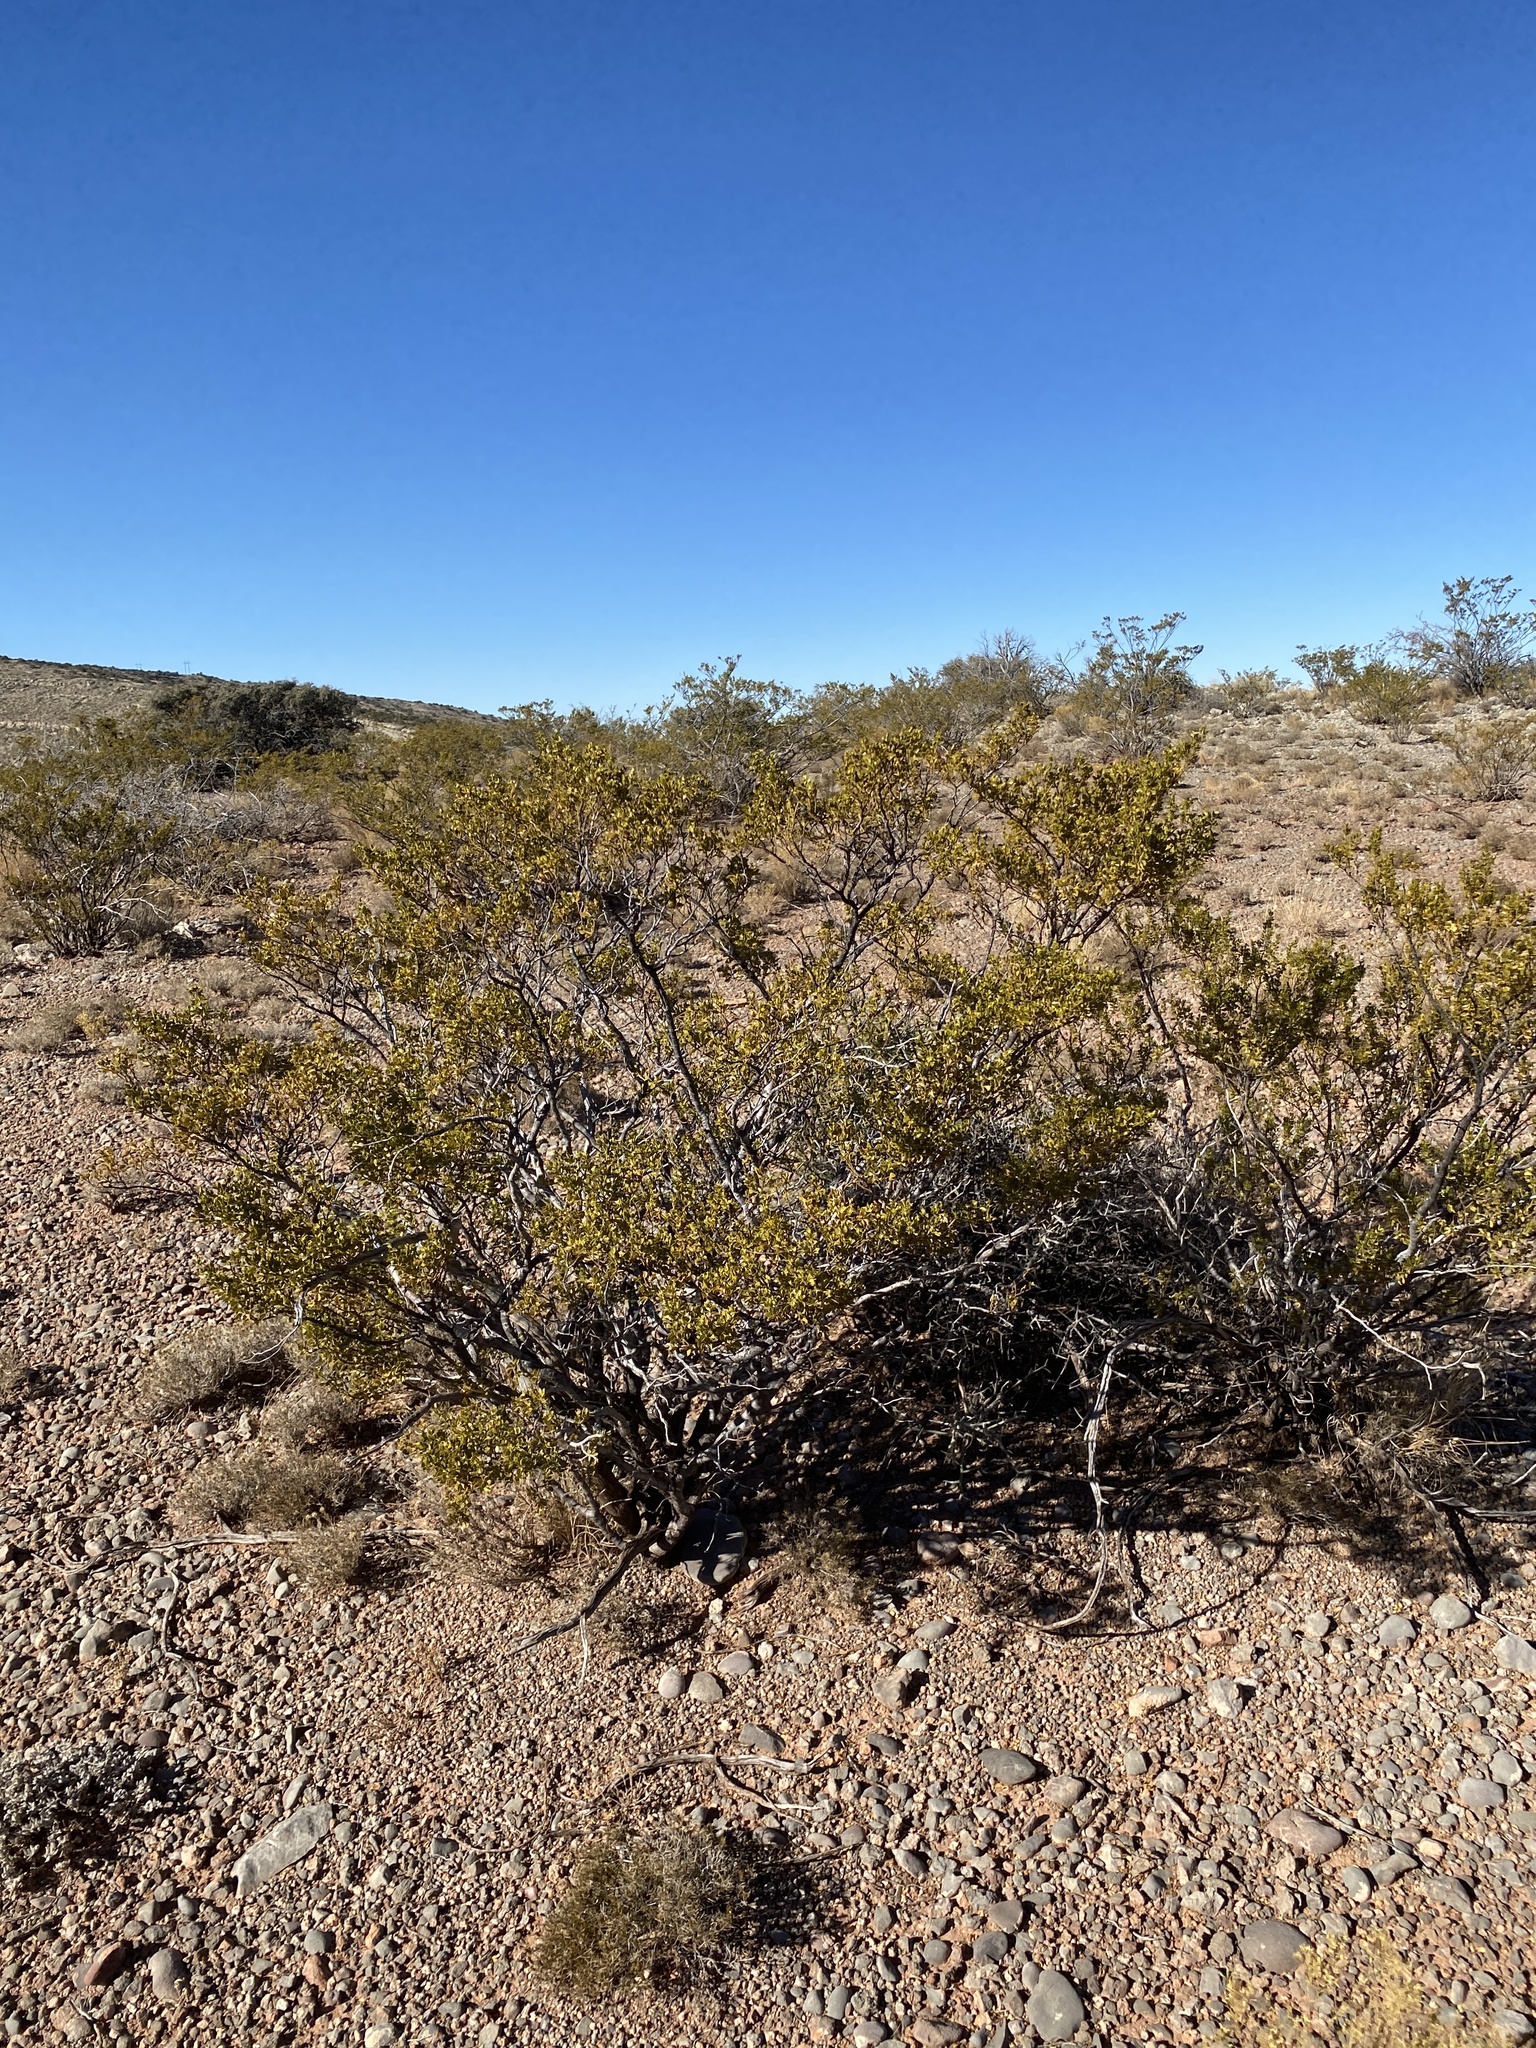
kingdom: Plantae
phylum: Tracheophyta
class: Magnoliopsida
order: Zygophyllales
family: Zygophyllaceae
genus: Larrea
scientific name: Larrea tridentata
